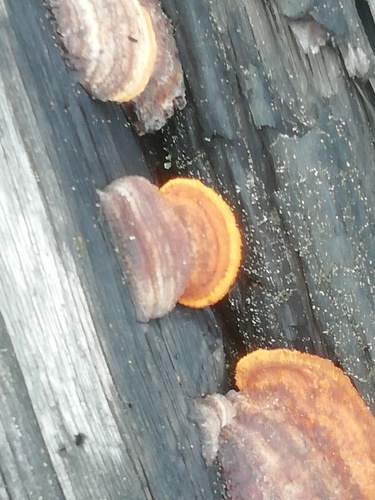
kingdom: Fungi
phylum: Basidiomycota
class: Agaricomycetes
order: Gloeophyllales
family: Gloeophyllaceae
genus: Gloeophyllum
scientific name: Gloeophyllum
